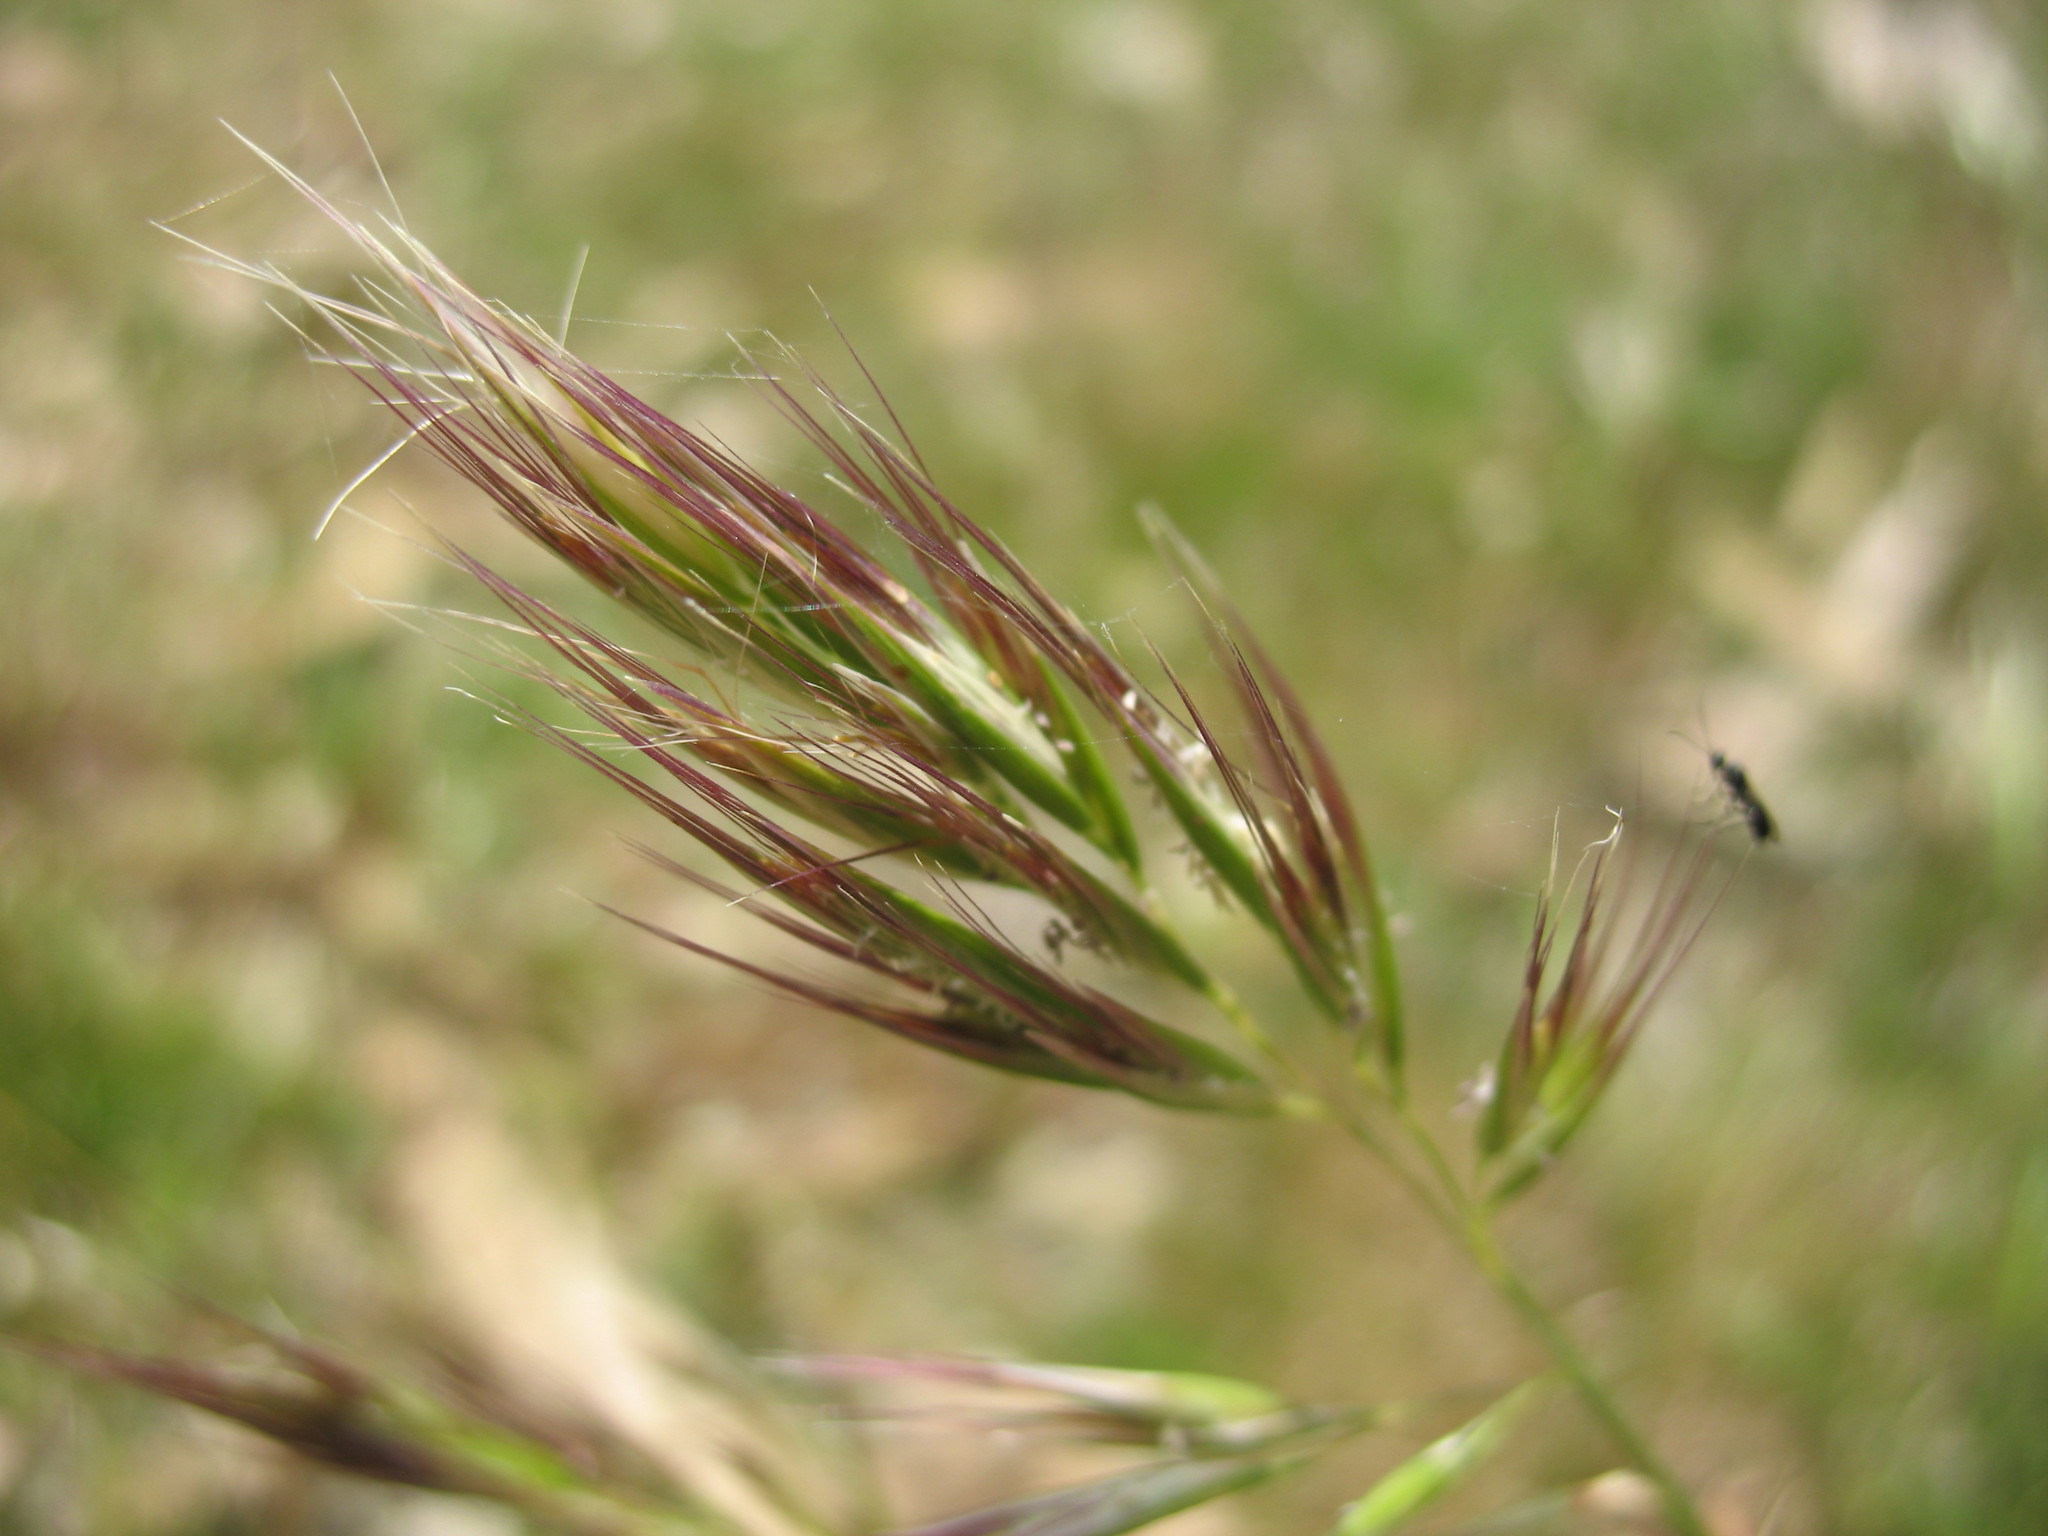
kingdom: Plantae
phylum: Tracheophyta
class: Liliopsida
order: Poales
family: Poaceae
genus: Rytidosperma
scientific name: Rytidosperma pilosum
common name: Hairy wallaby grass
